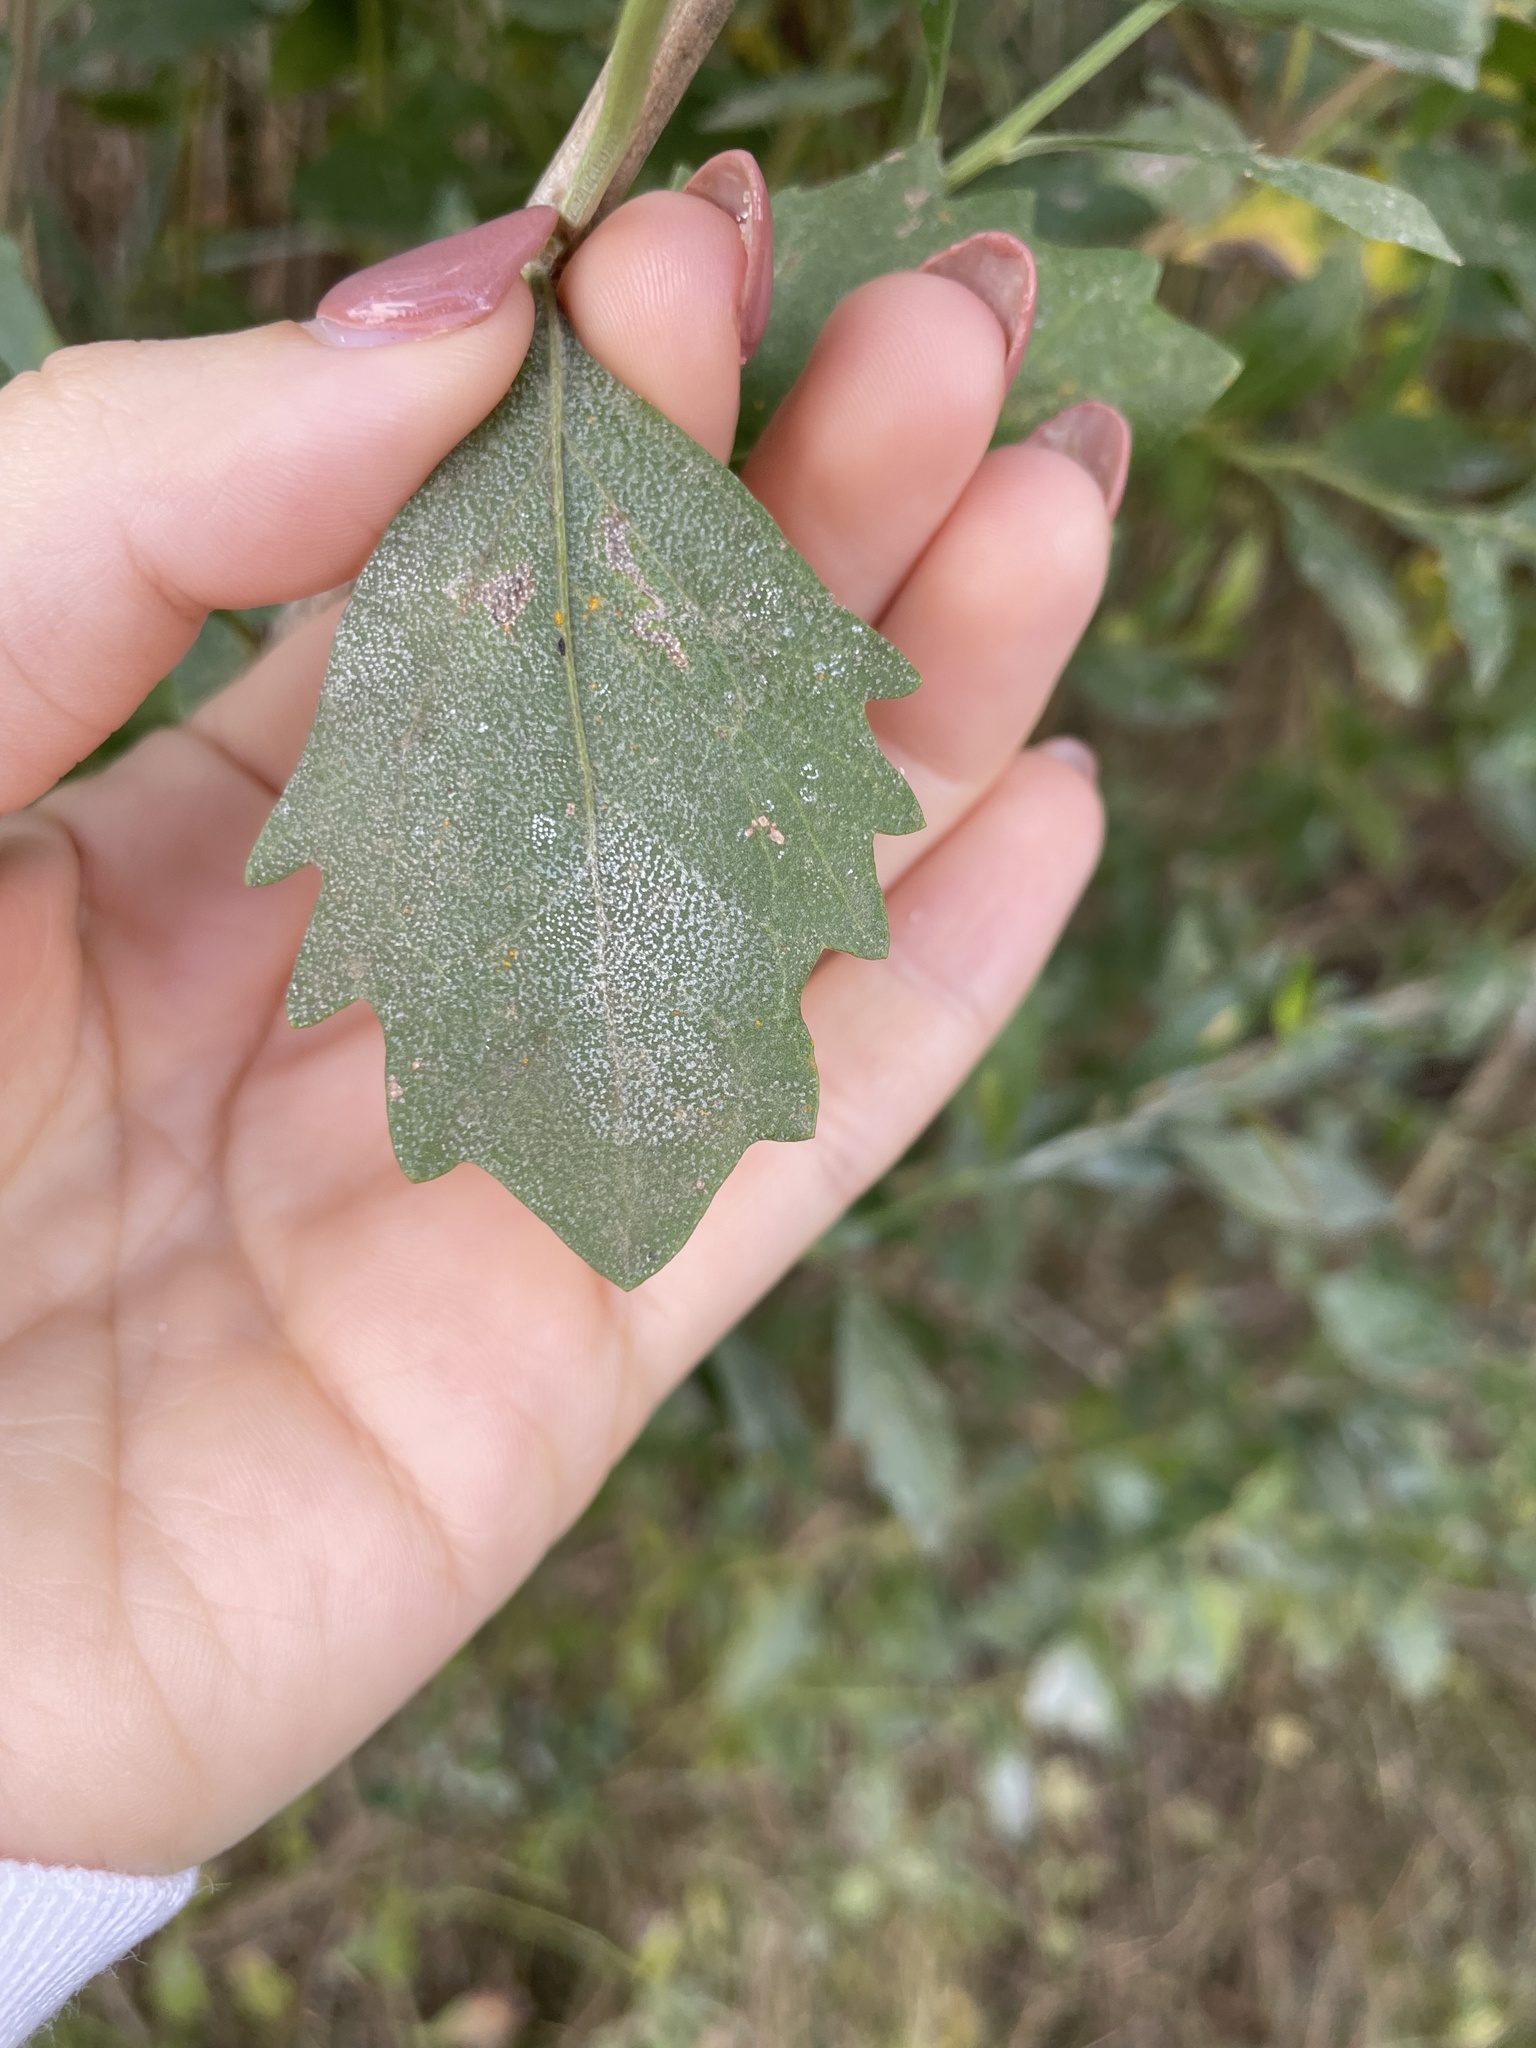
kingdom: Plantae
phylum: Tracheophyta
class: Magnoliopsida
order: Asterales
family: Asteraceae
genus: Baccharis
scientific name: Baccharis halimifolia
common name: Eastern baccharis
